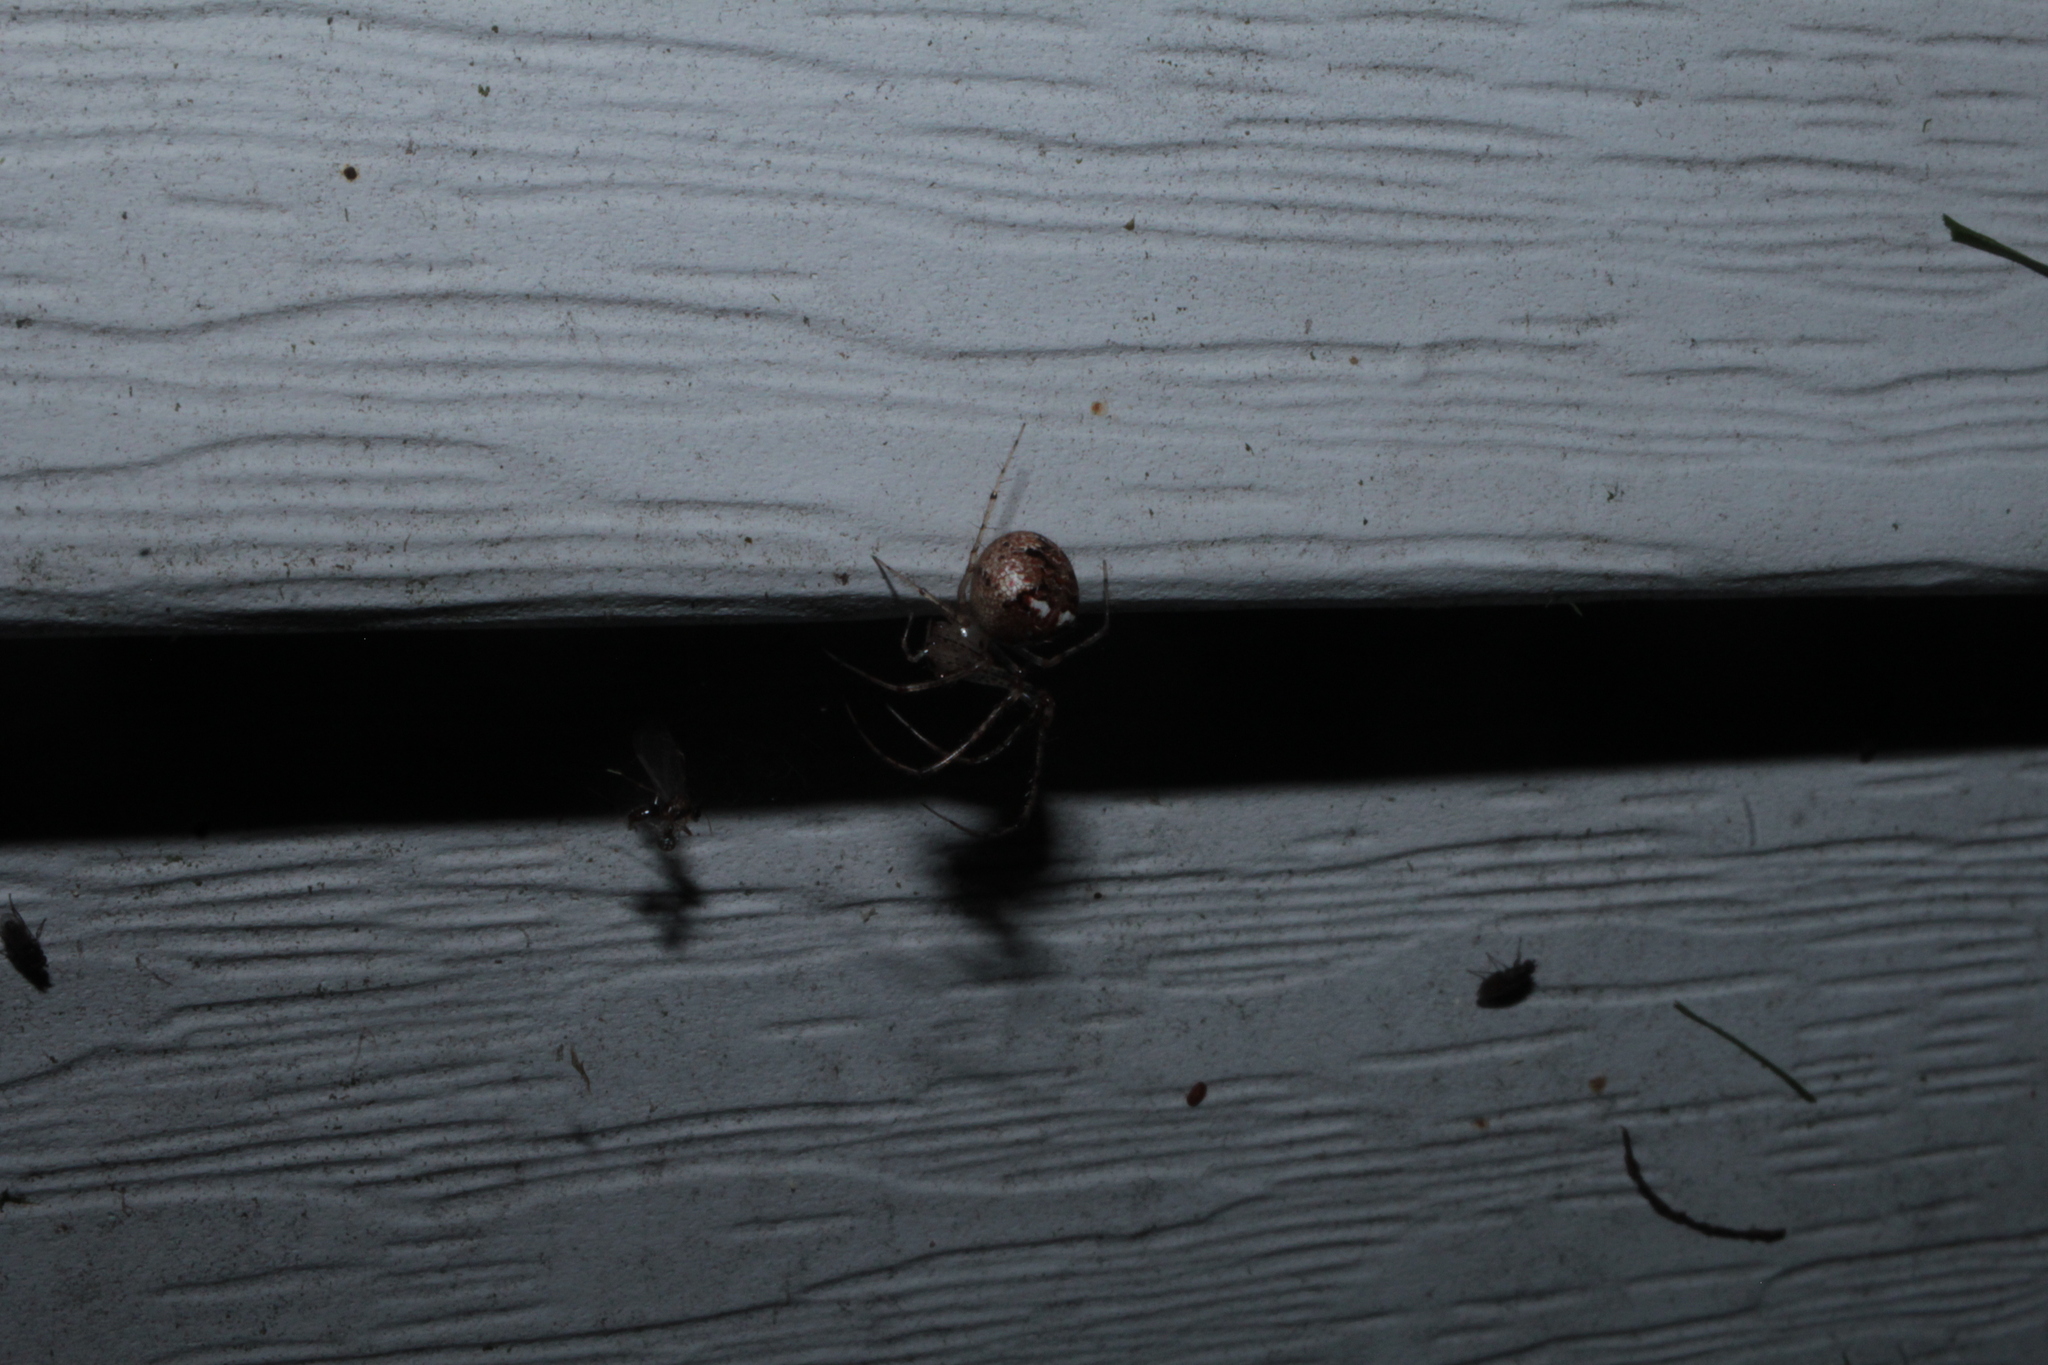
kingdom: Animalia
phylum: Arthropoda
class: Arachnida
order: Araneae
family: Mimetidae
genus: Mimetus
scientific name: Mimetus puritanus
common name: Common pirate spider
